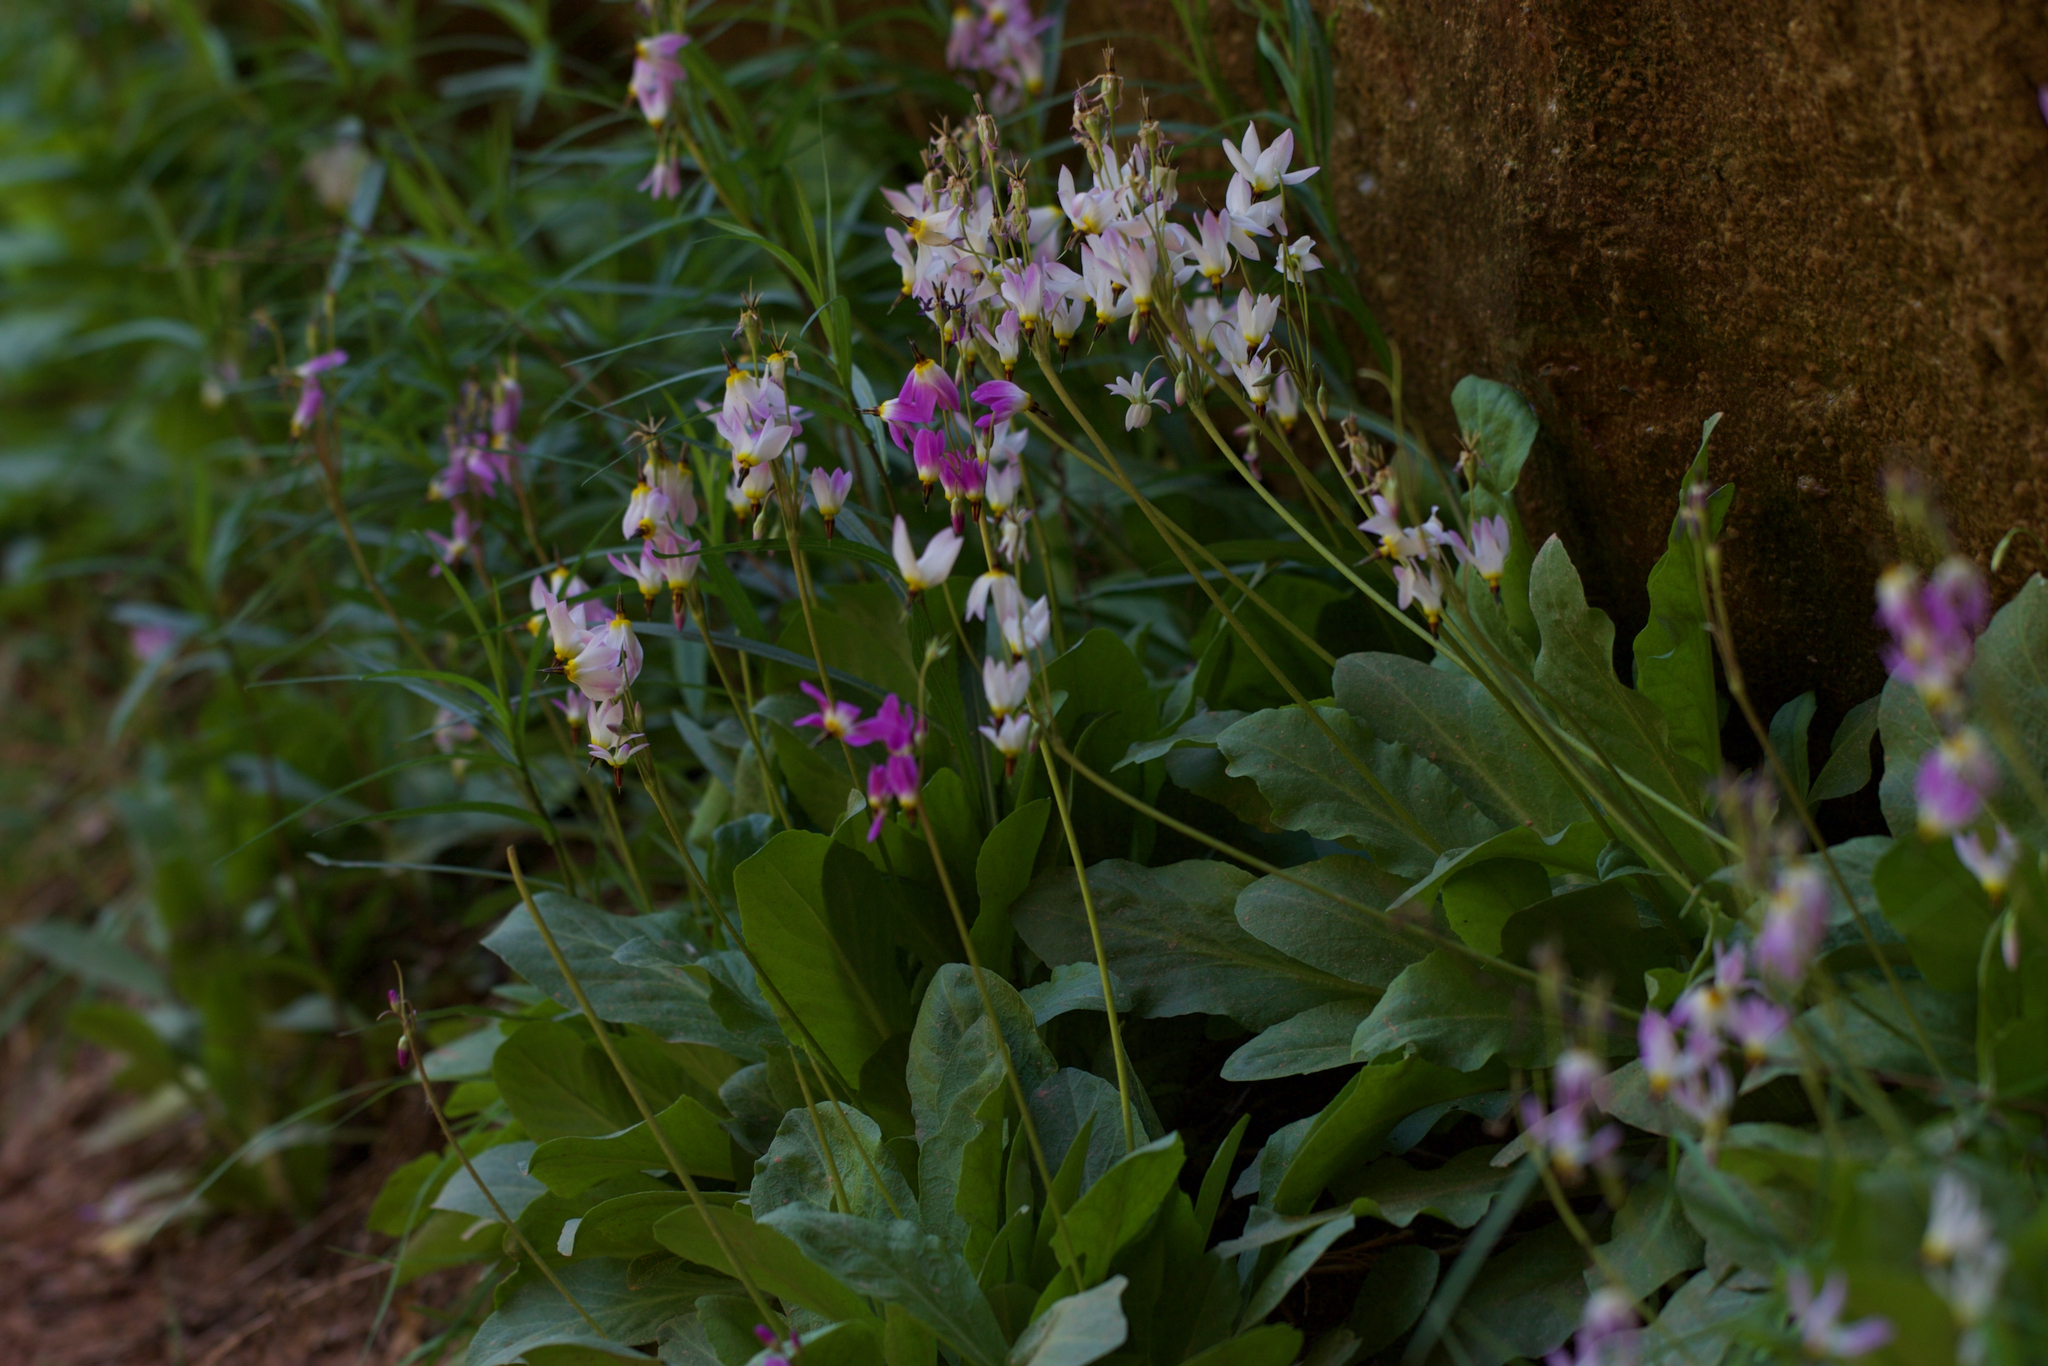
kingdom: Plantae
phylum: Tracheophyta
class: Magnoliopsida
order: Ericales
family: Primulaceae
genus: Dodecatheon
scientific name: Dodecatheon pulchellum
